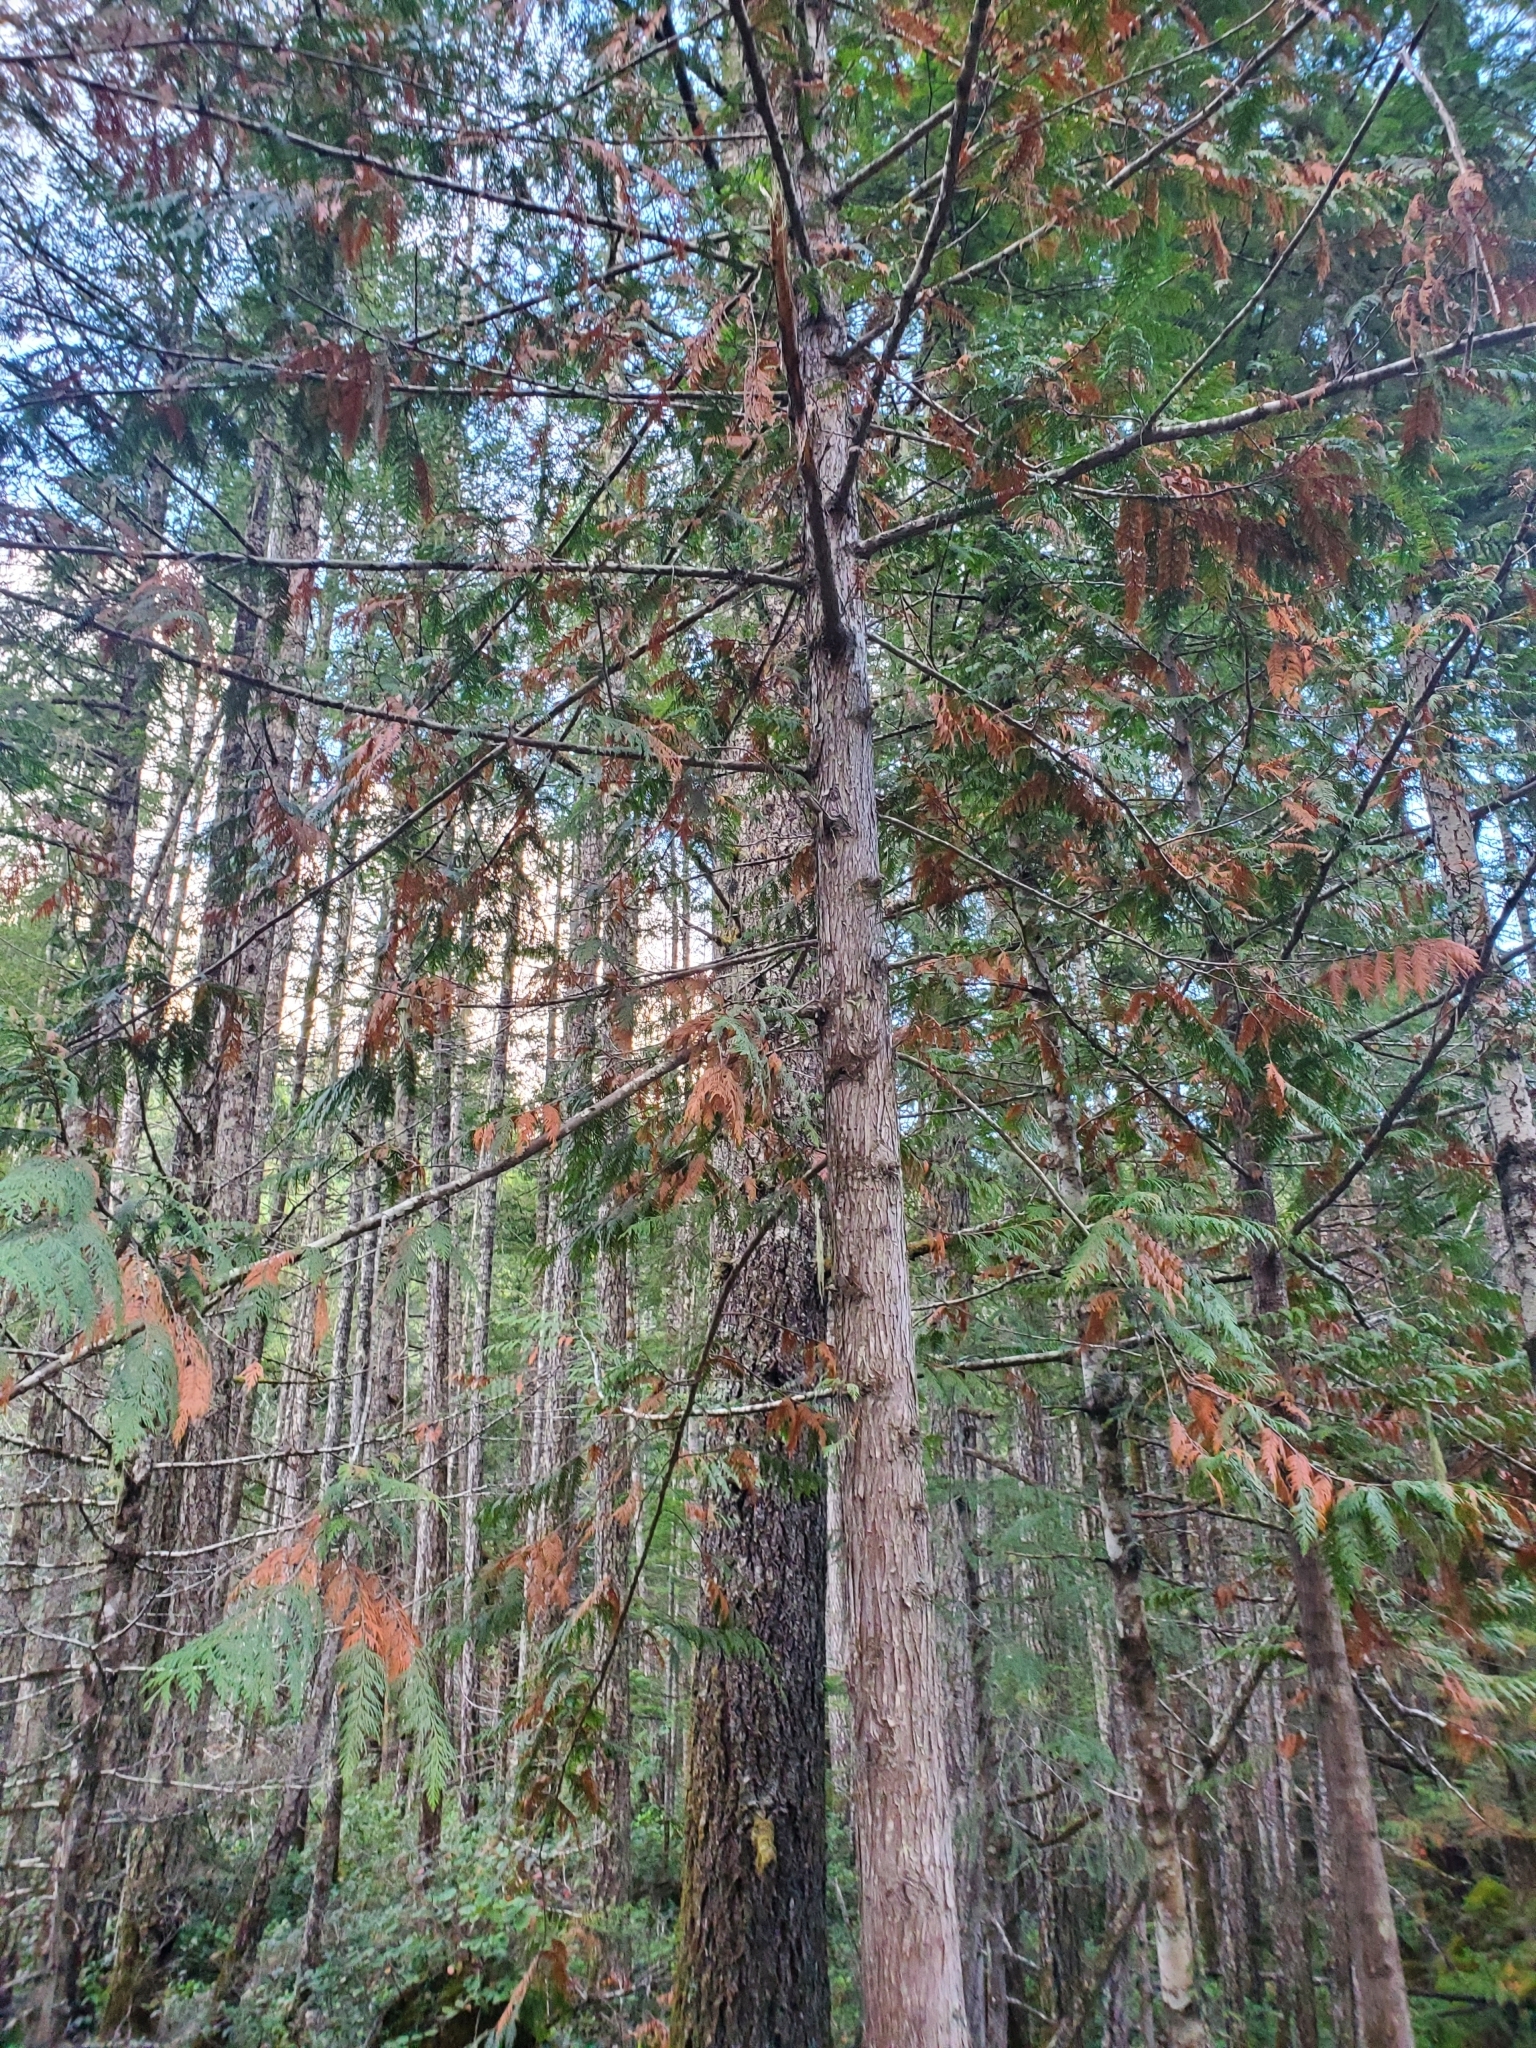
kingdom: Plantae
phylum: Tracheophyta
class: Pinopsida
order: Pinales
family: Cupressaceae
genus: Thuja
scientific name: Thuja plicata
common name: Western red-cedar
